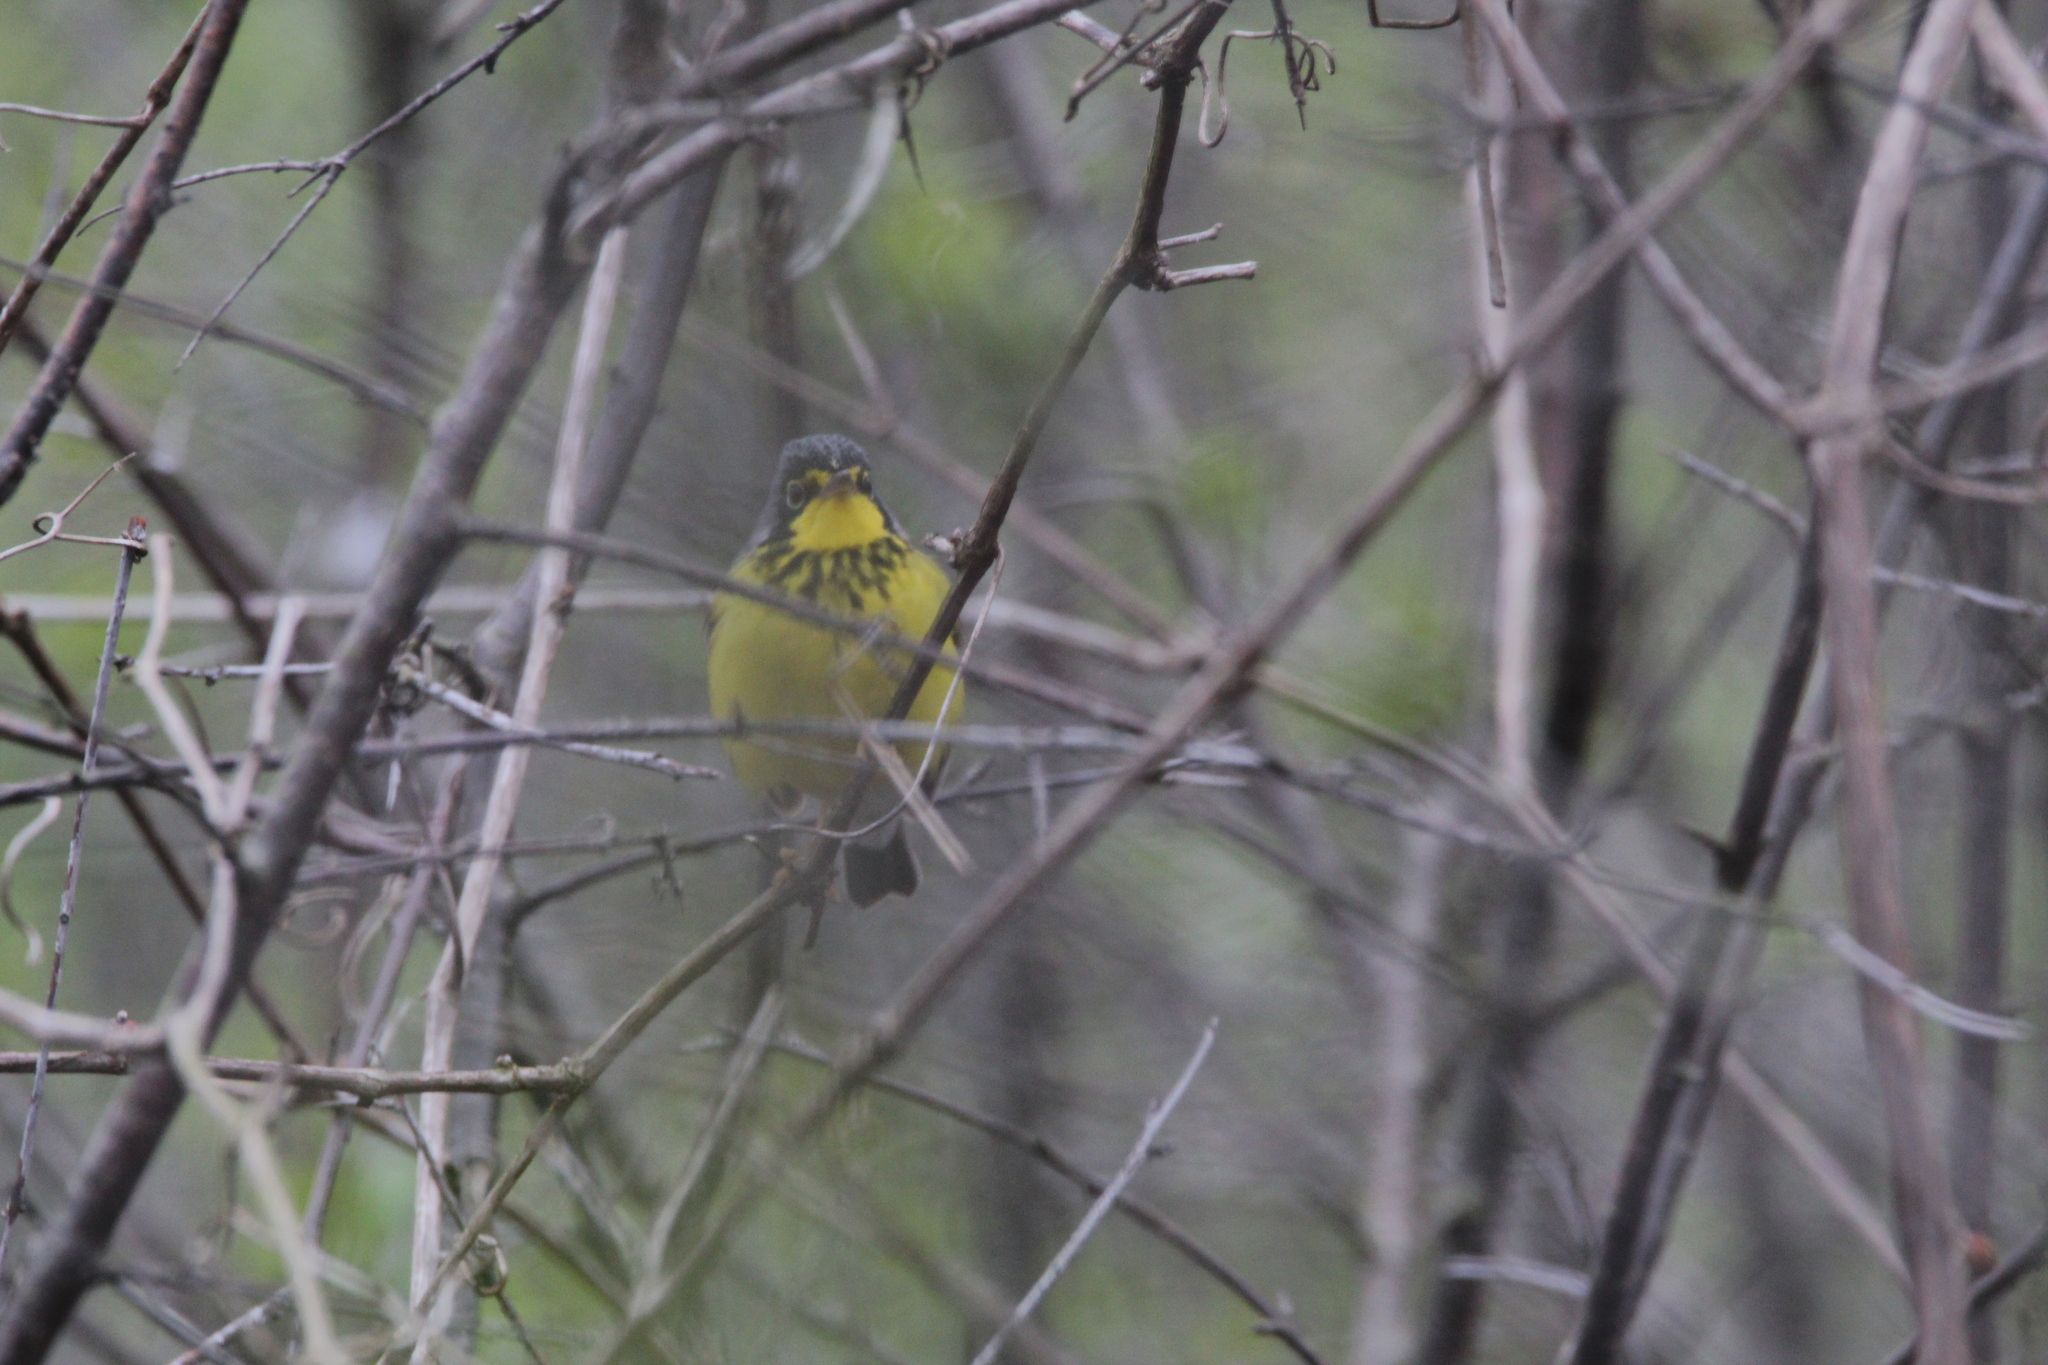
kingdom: Animalia
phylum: Chordata
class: Aves
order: Passeriformes
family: Parulidae
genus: Cardellina
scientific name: Cardellina canadensis
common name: Canada warbler
